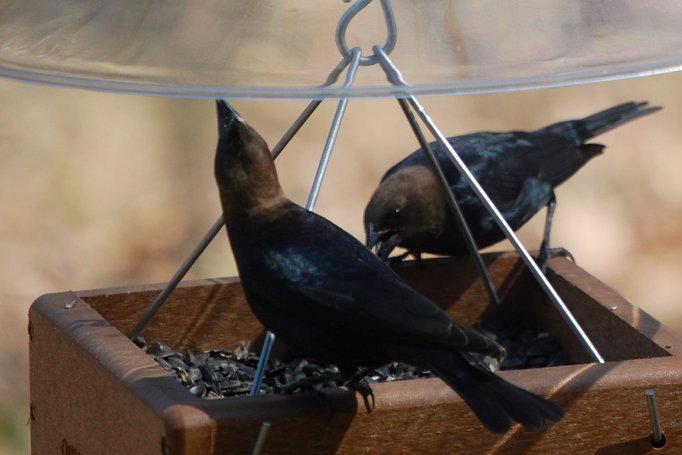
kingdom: Animalia
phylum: Chordata
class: Aves
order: Passeriformes
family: Icteridae
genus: Molothrus
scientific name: Molothrus ater
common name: Brown-headed cowbird
